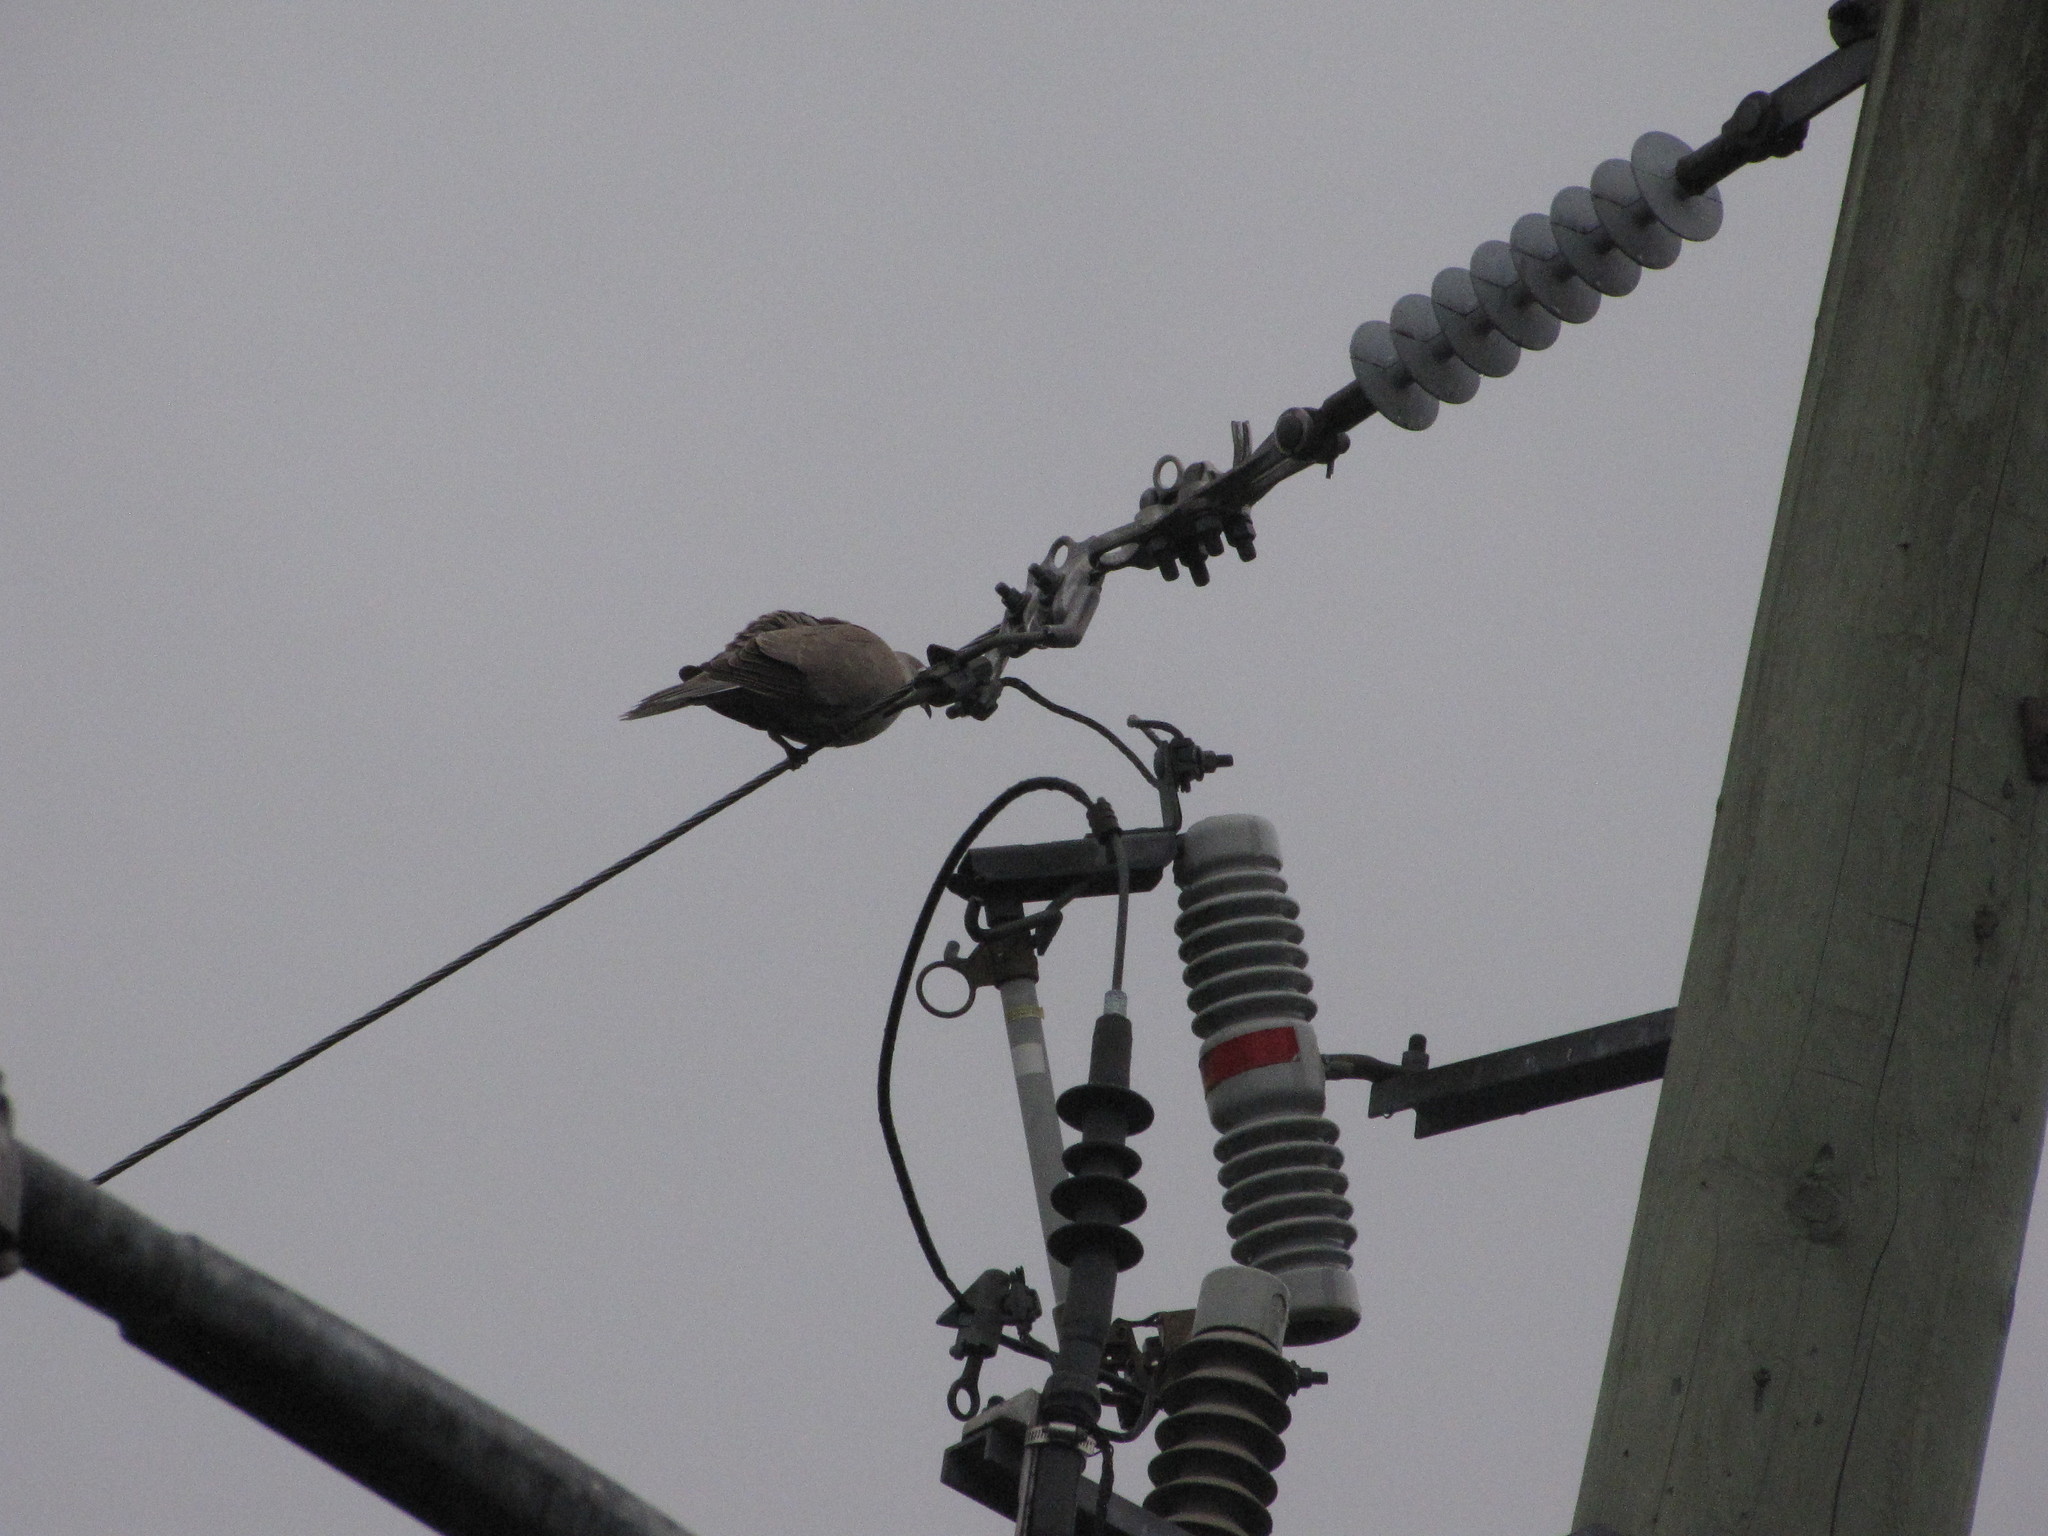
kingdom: Animalia
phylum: Chordata
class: Aves
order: Columbiformes
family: Columbidae
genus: Streptopelia
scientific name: Streptopelia decaocto
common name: Eurasian collared dove
